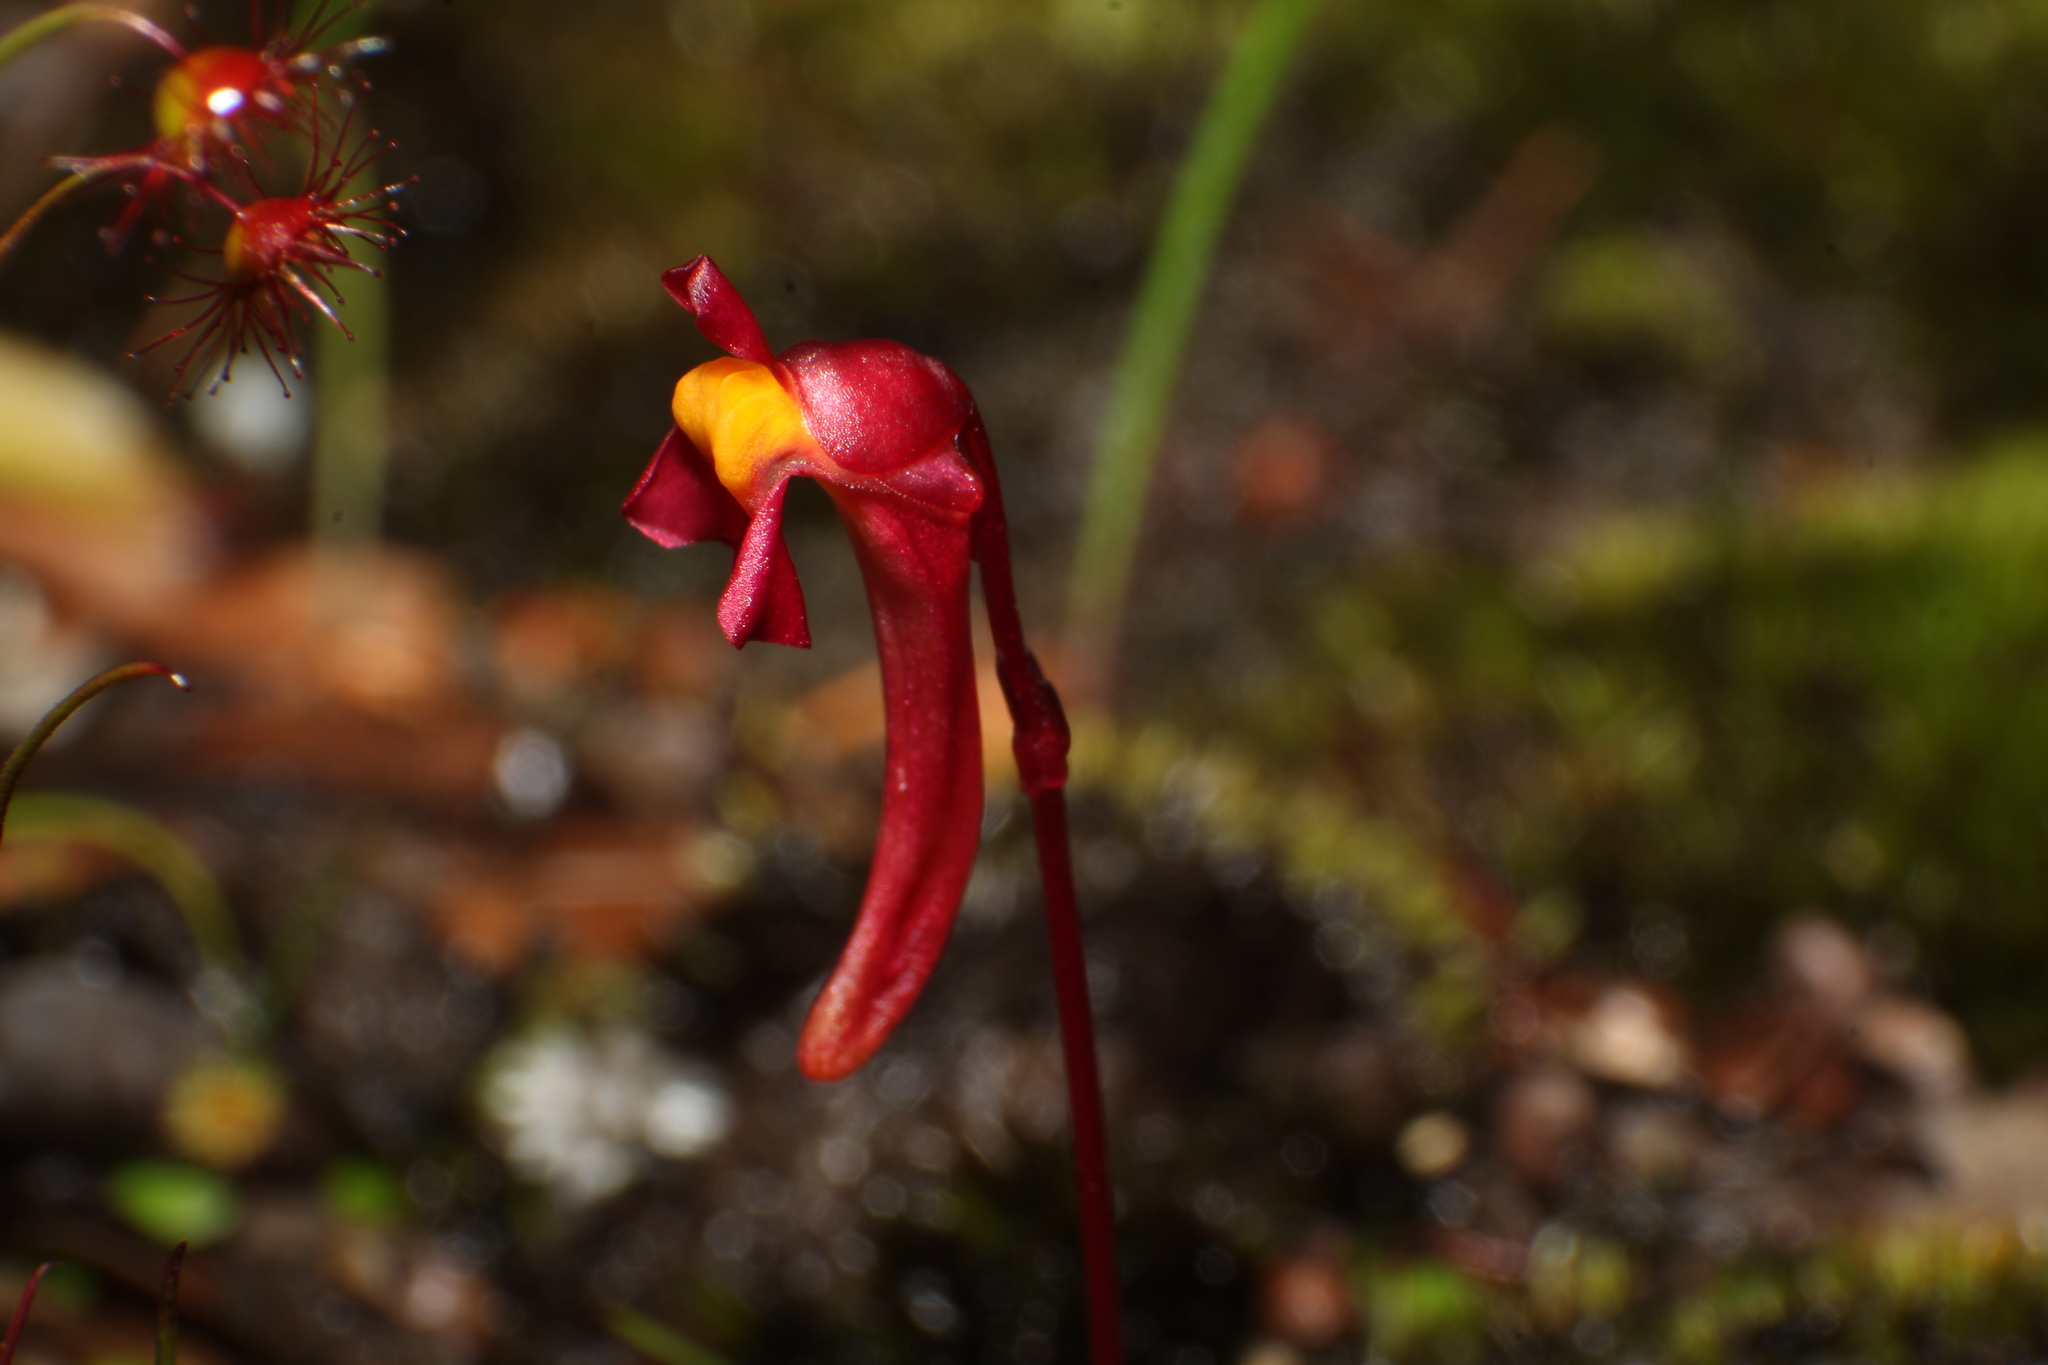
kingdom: Plantae
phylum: Tracheophyta
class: Magnoliopsida
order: Lamiales
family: Lentibulariaceae
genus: Utricularia
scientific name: Utricularia menziesii
